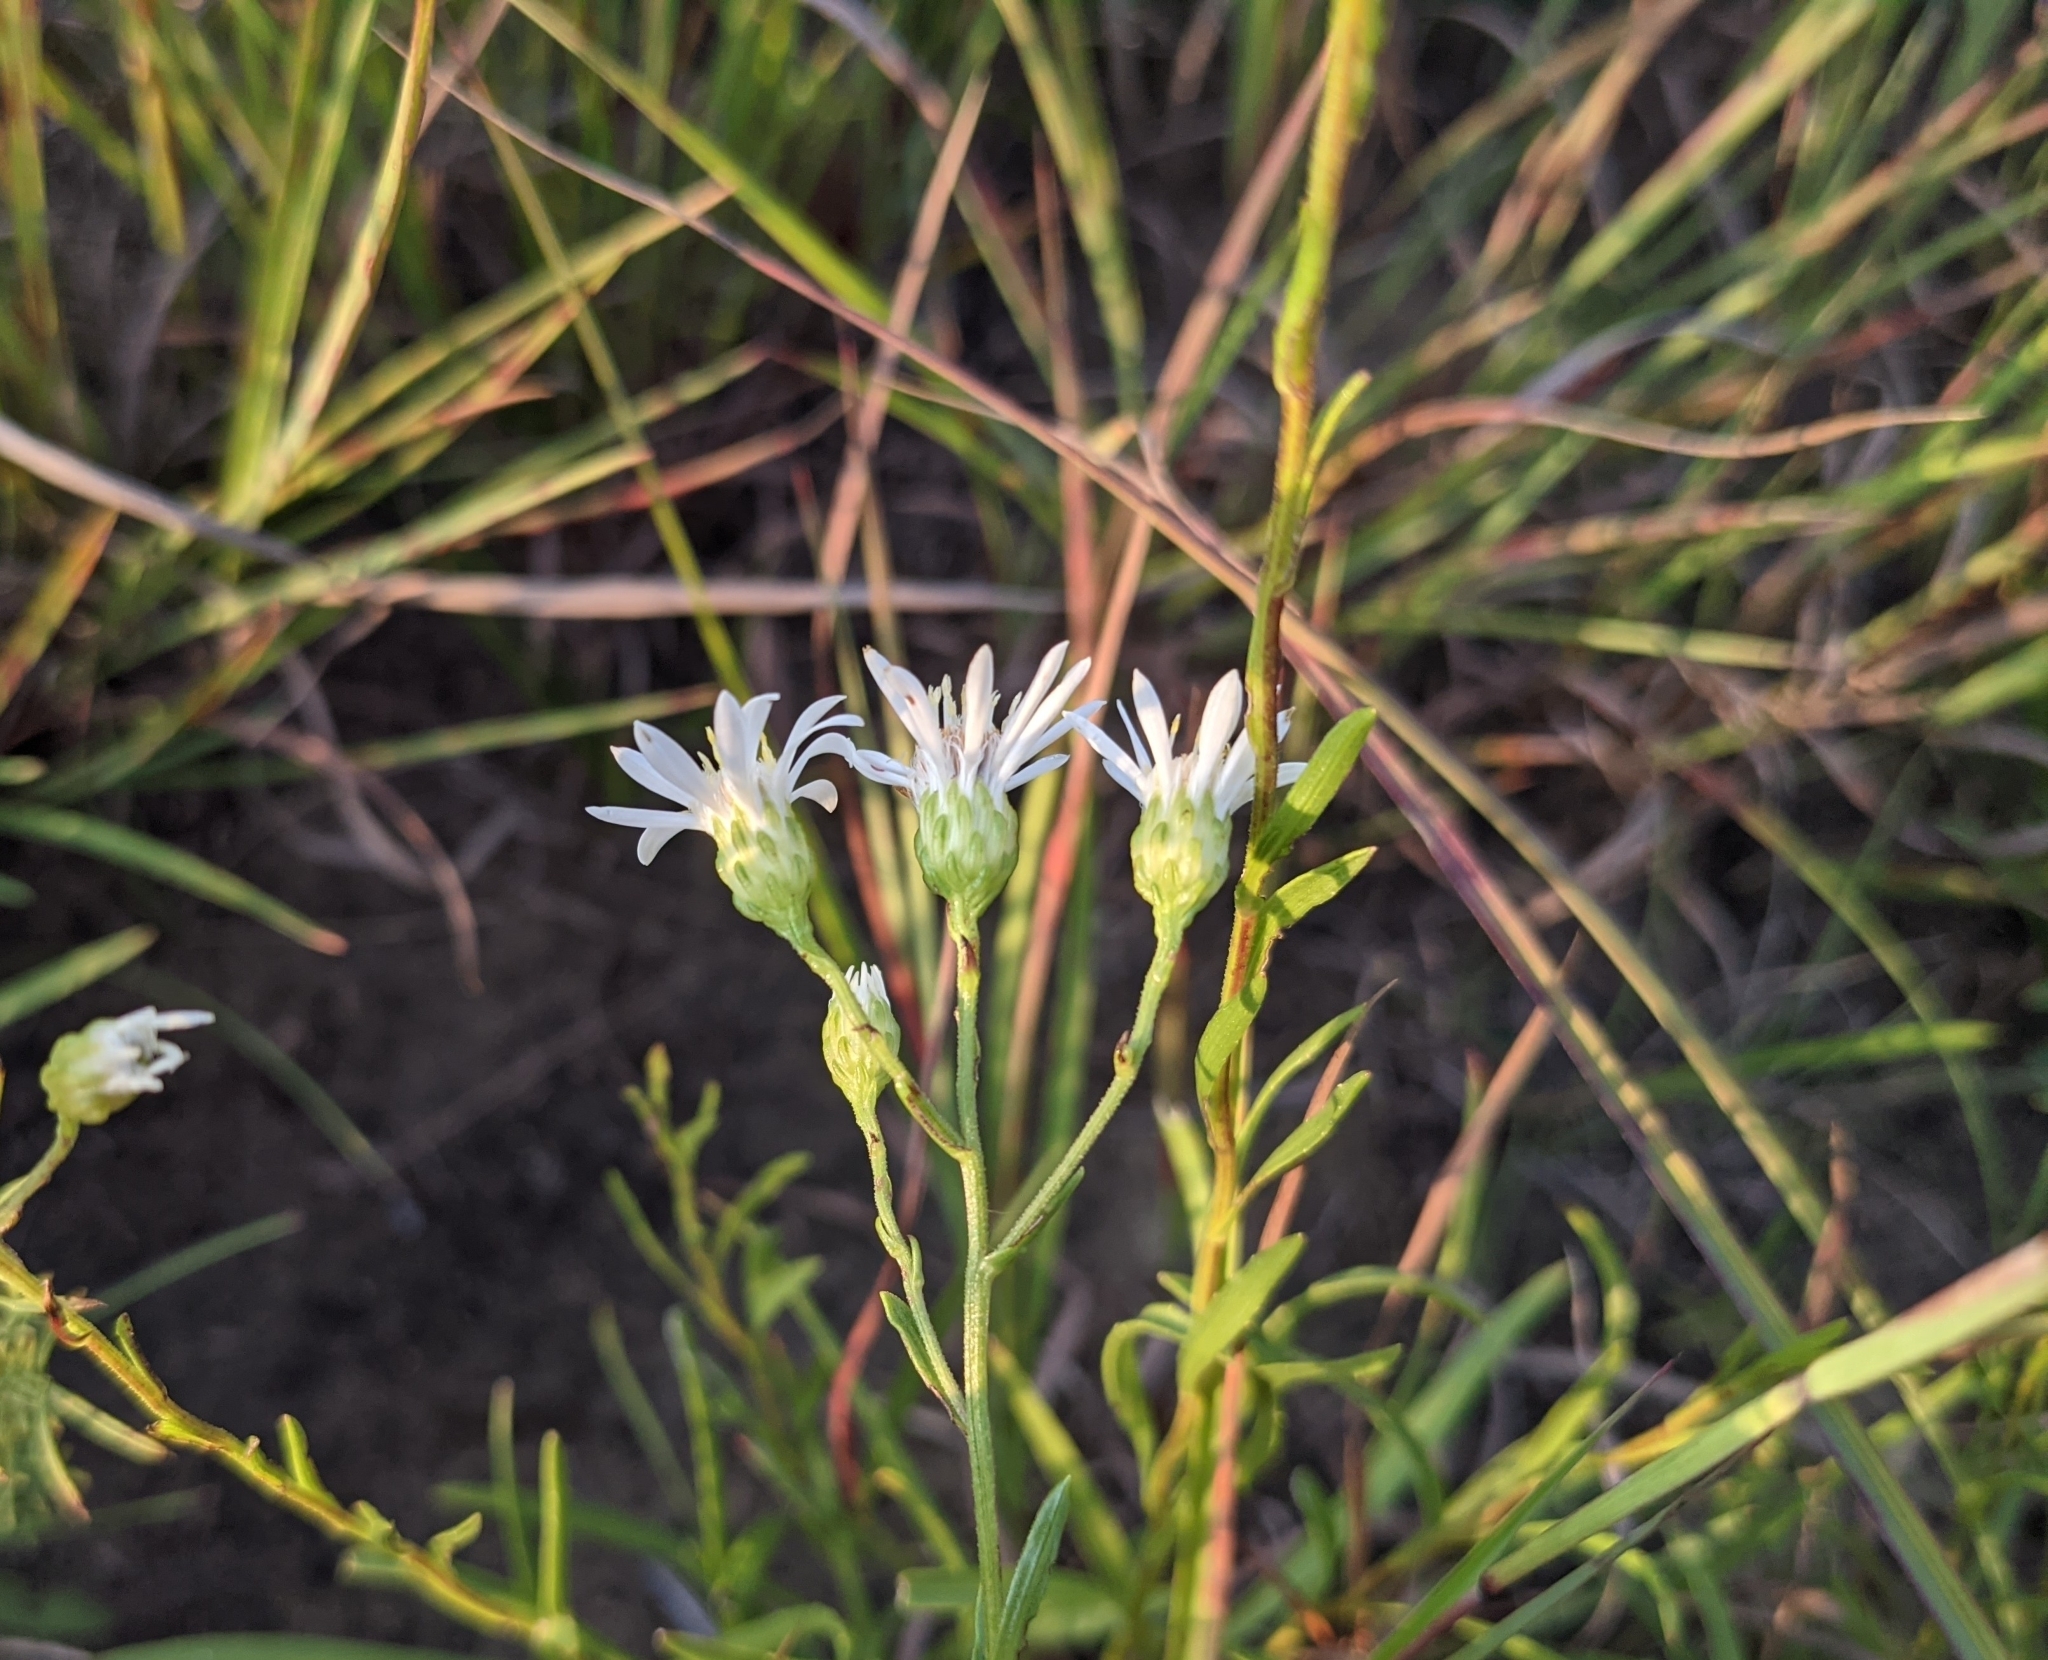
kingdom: Plantae
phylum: Tracheophyta
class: Magnoliopsida
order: Asterales
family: Asteraceae
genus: Solidago
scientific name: Solidago ptarmicoides
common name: White flat-top goldenrod
